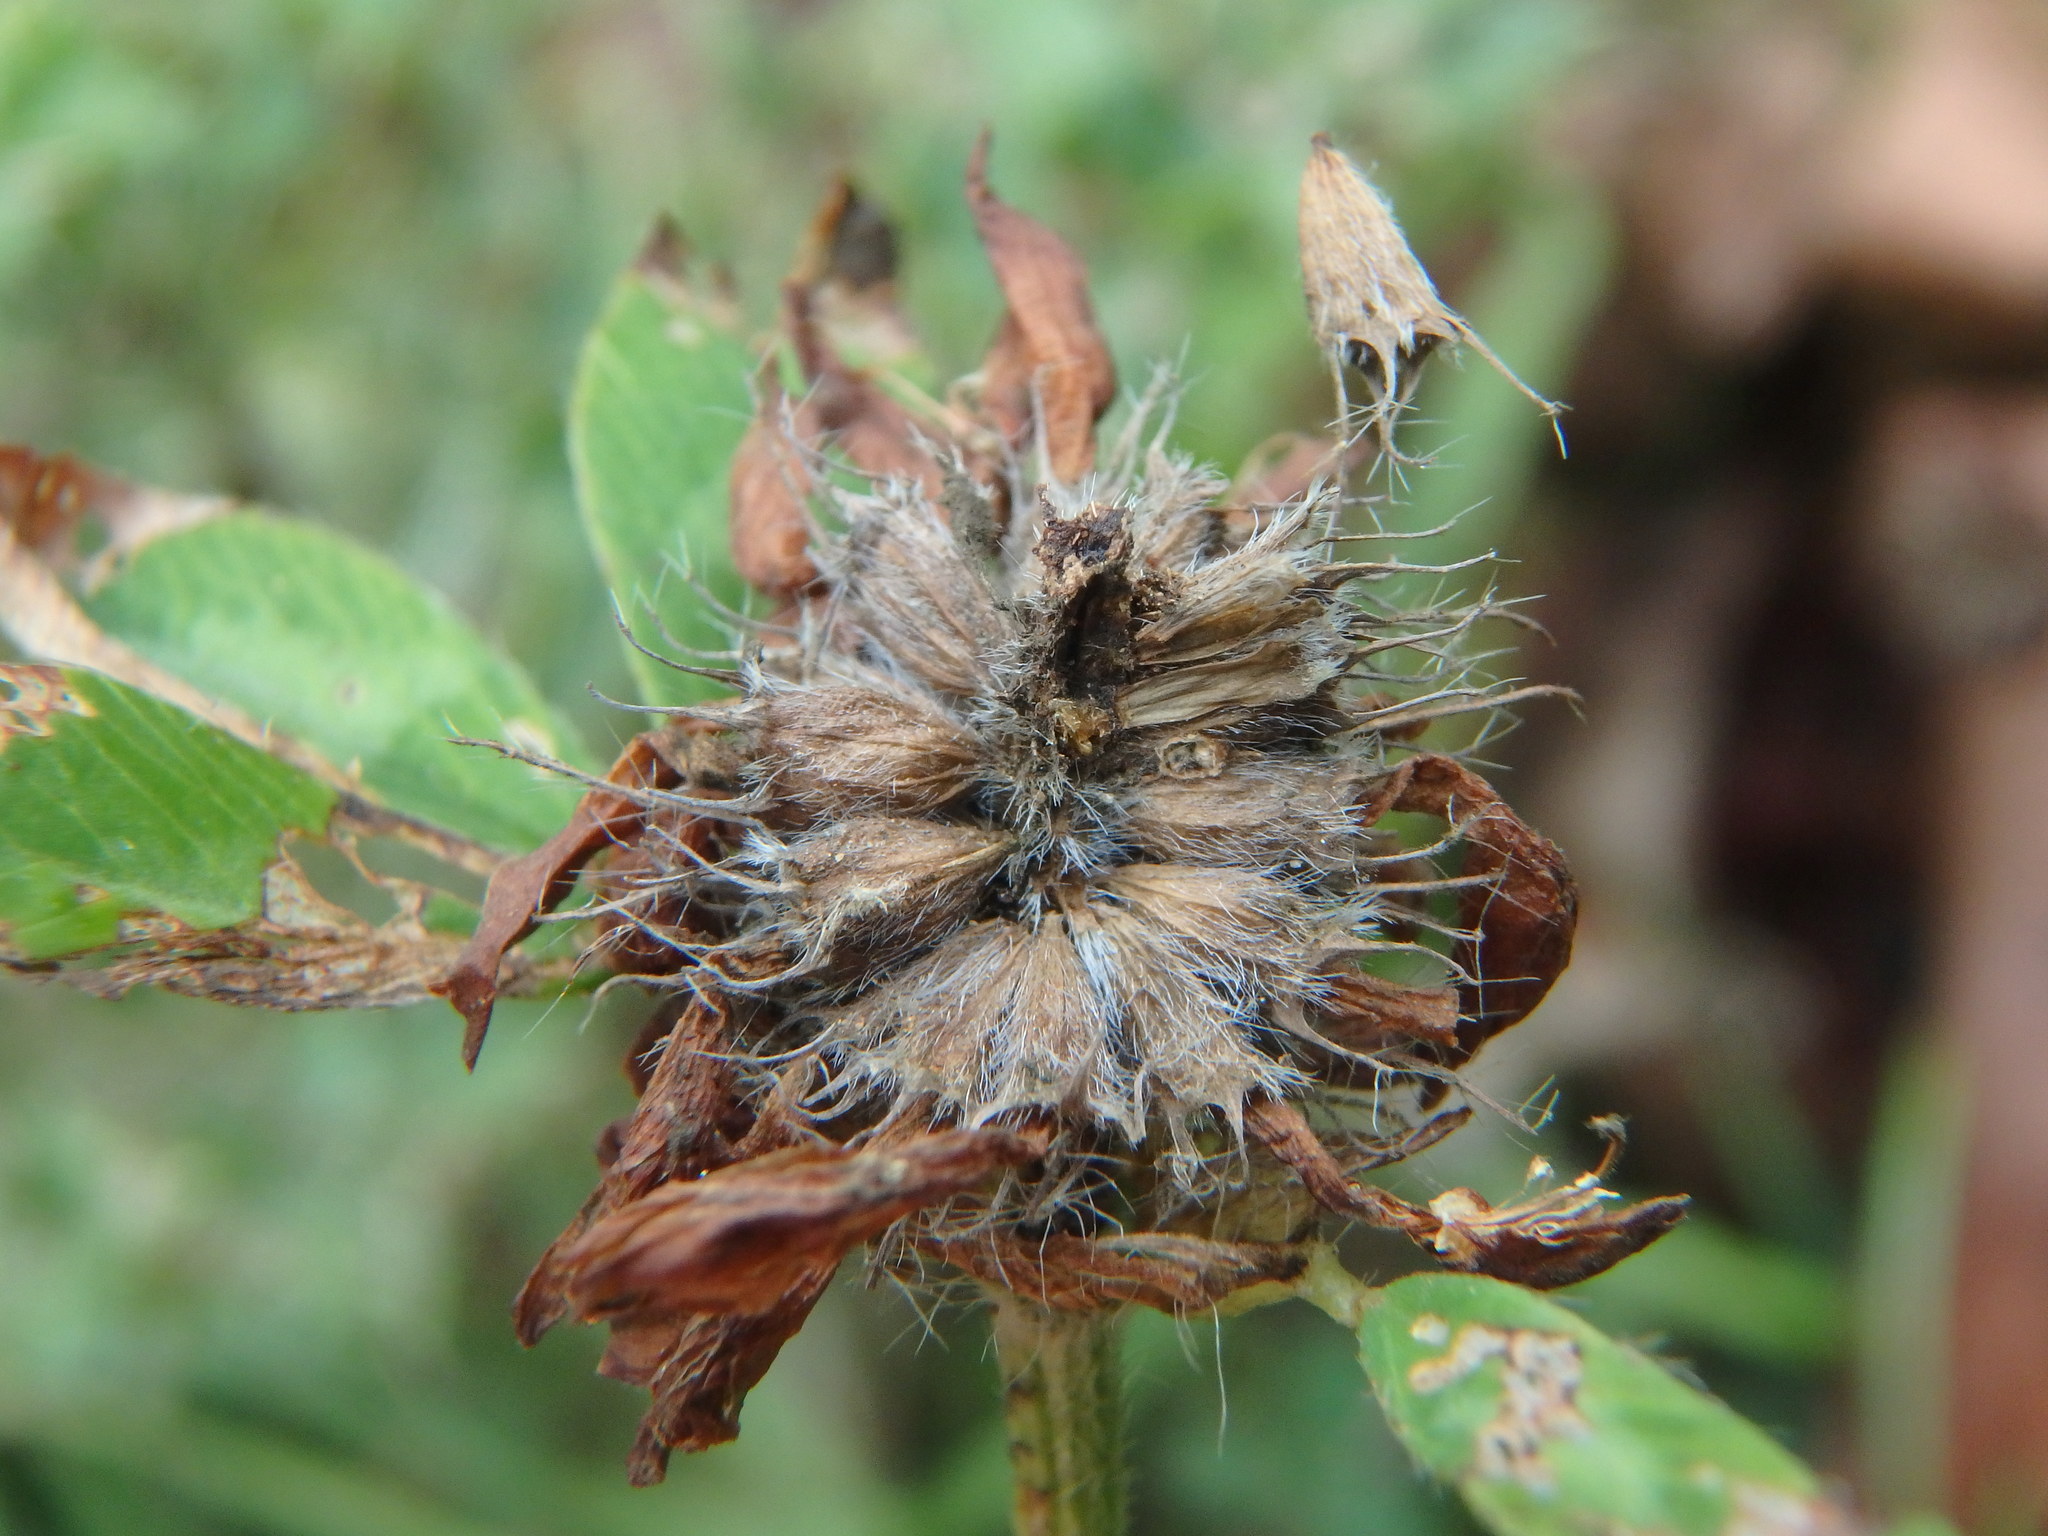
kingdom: Plantae
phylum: Tracheophyta
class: Magnoliopsida
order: Fabales
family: Fabaceae
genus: Trifolium
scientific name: Trifolium pratense
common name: Red clover
